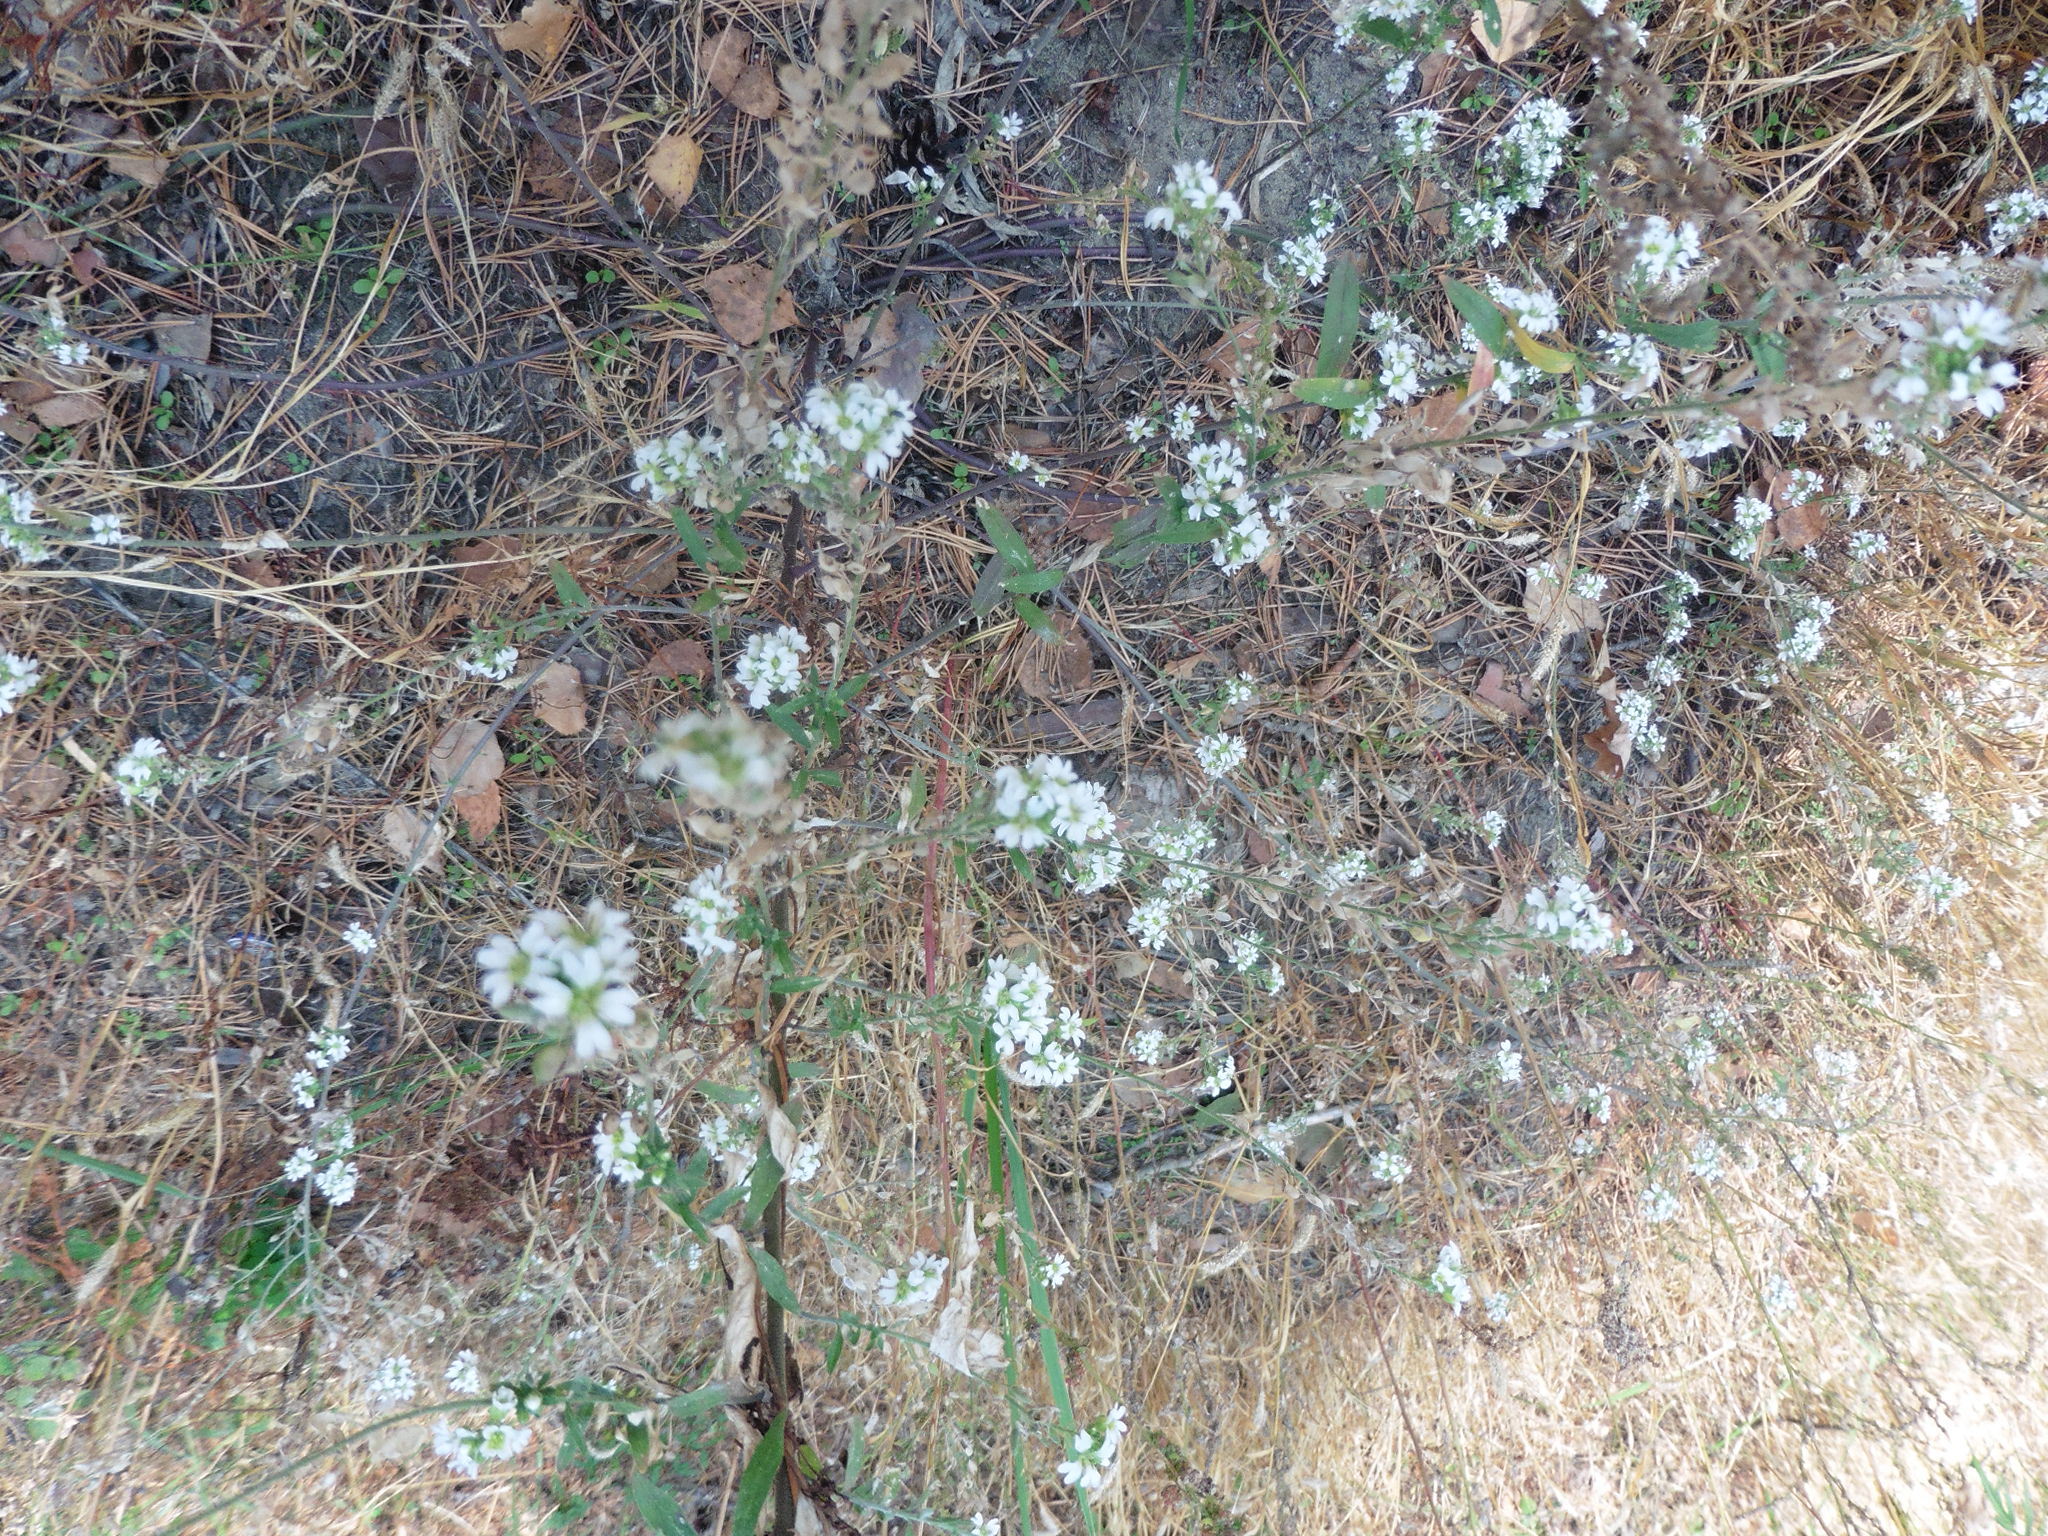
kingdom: Plantae
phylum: Tracheophyta
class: Magnoliopsida
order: Brassicales
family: Brassicaceae
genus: Berteroa
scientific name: Berteroa incana
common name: Hoary alison
